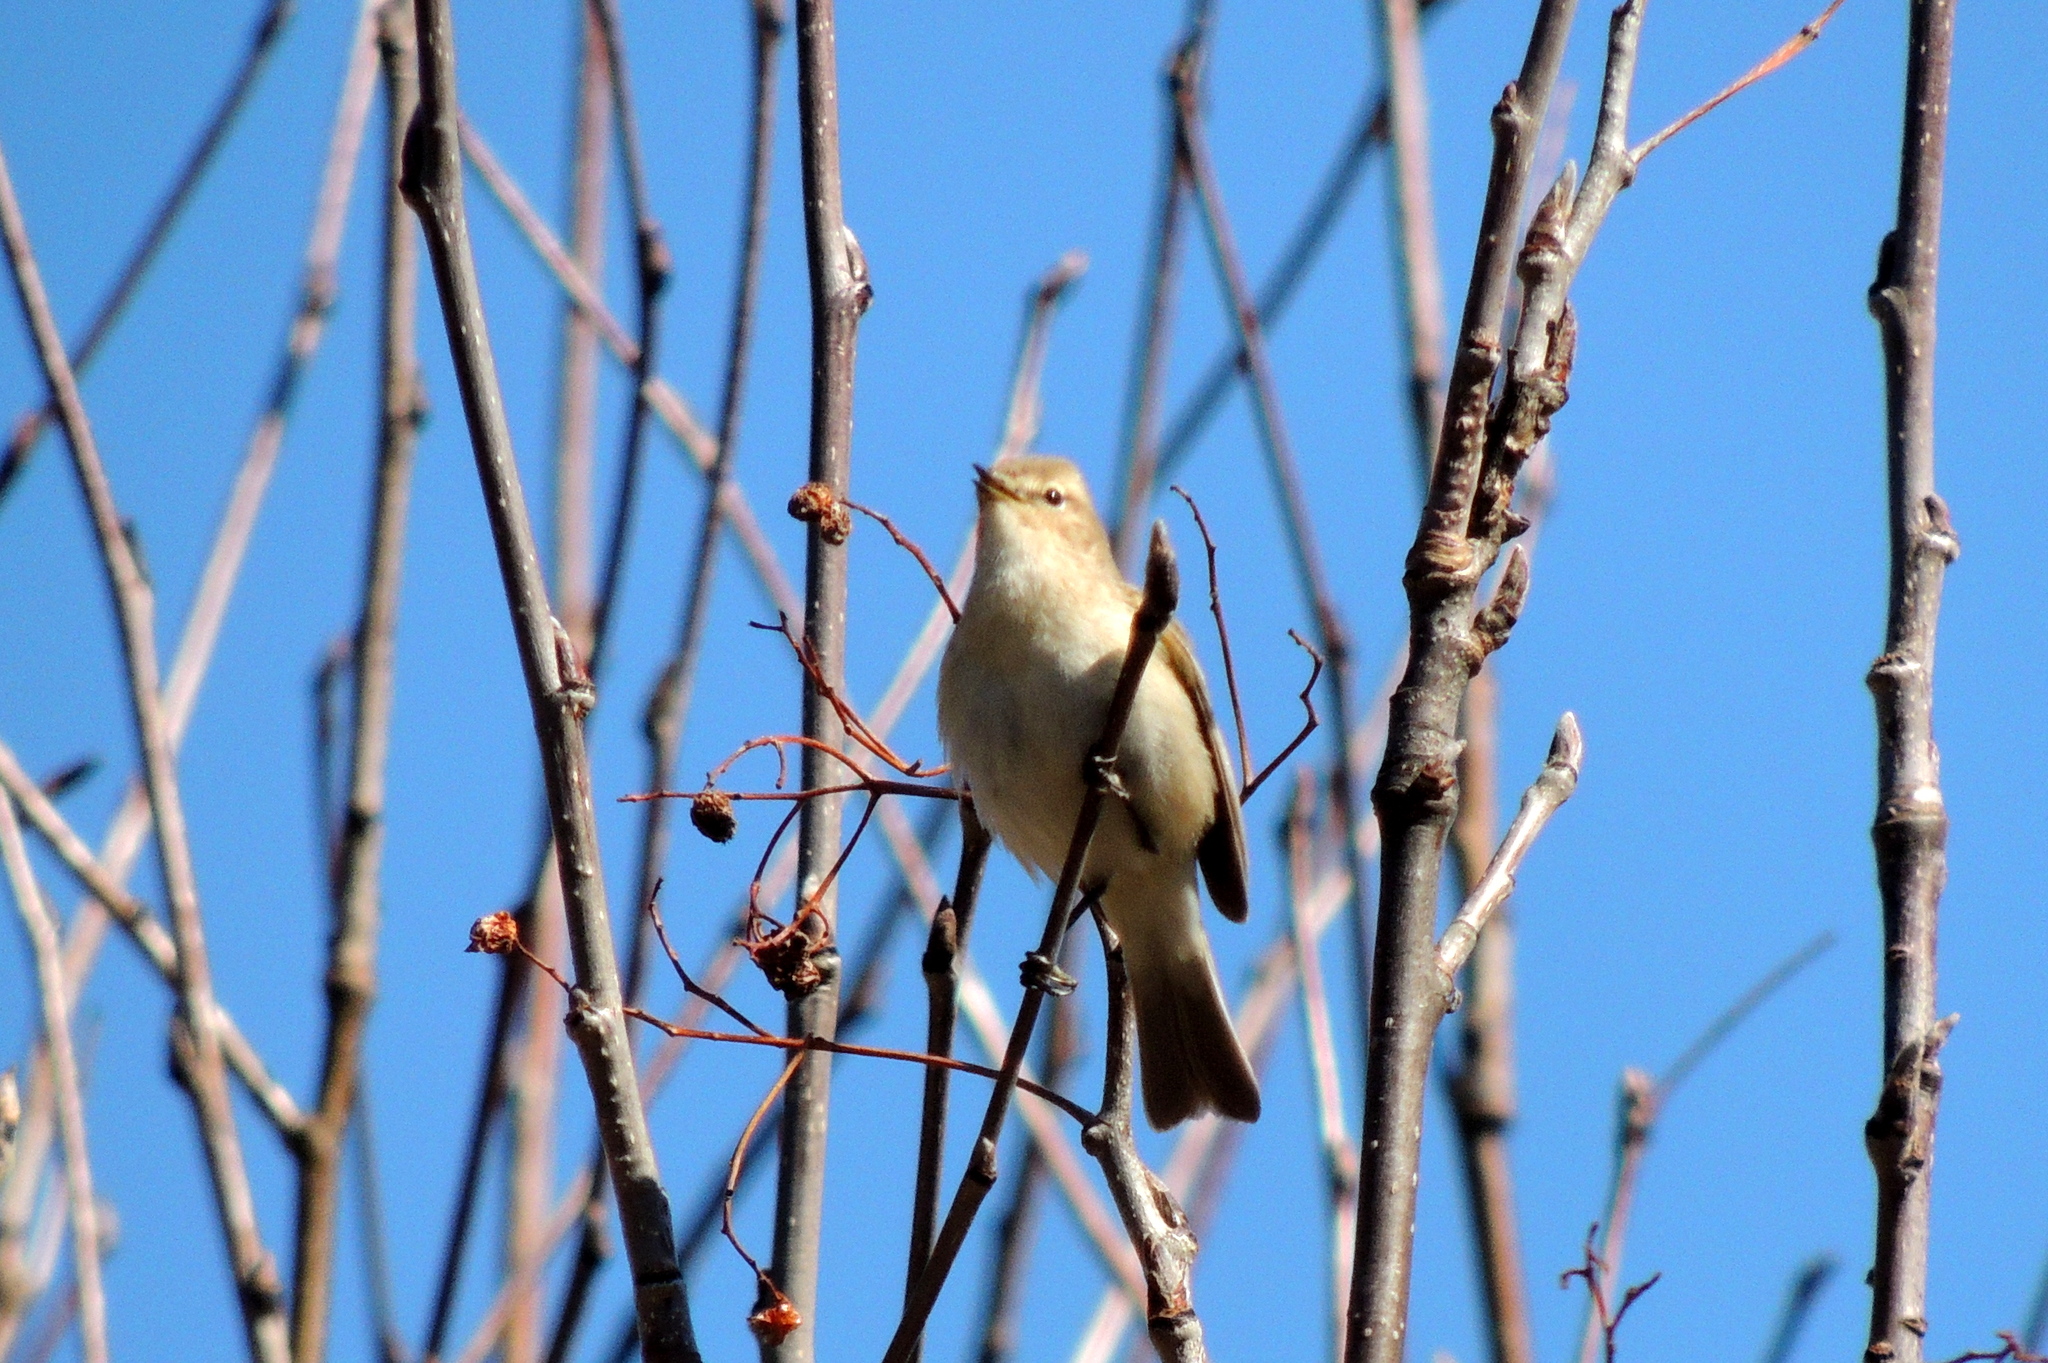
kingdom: Animalia
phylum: Chordata
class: Aves
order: Passeriformes
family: Phylloscopidae
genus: Phylloscopus
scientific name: Phylloscopus collybita
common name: Common chiffchaff
